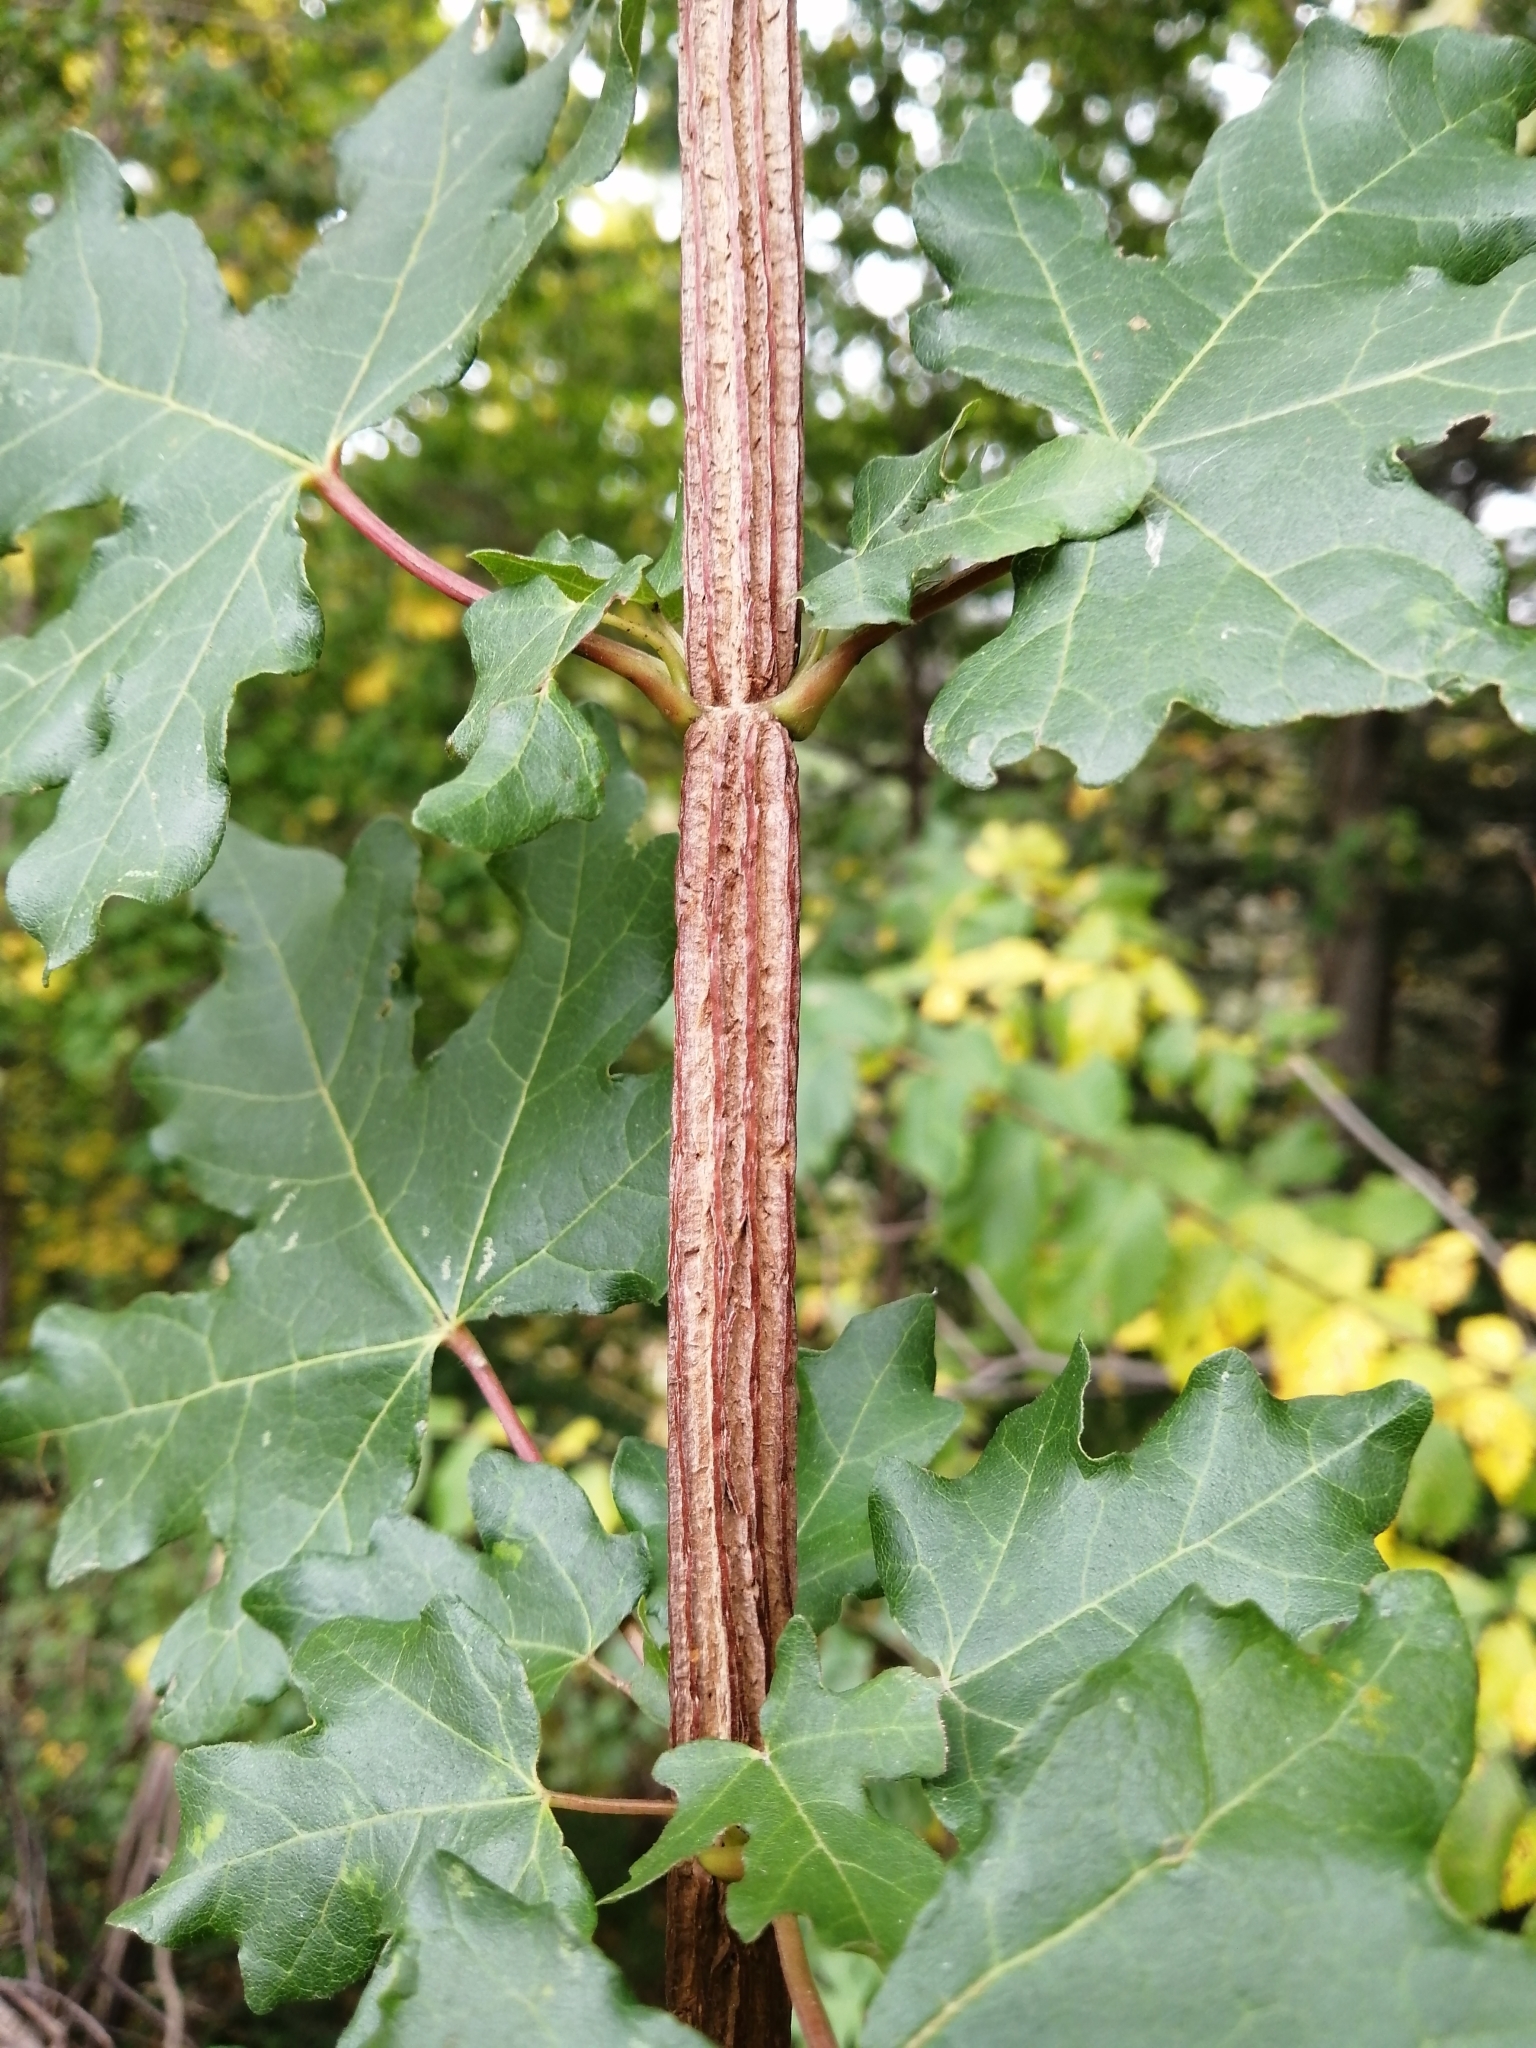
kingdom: Plantae
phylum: Tracheophyta
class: Magnoliopsida
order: Sapindales
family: Sapindaceae
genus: Acer
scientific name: Acer campestre
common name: Field maple
